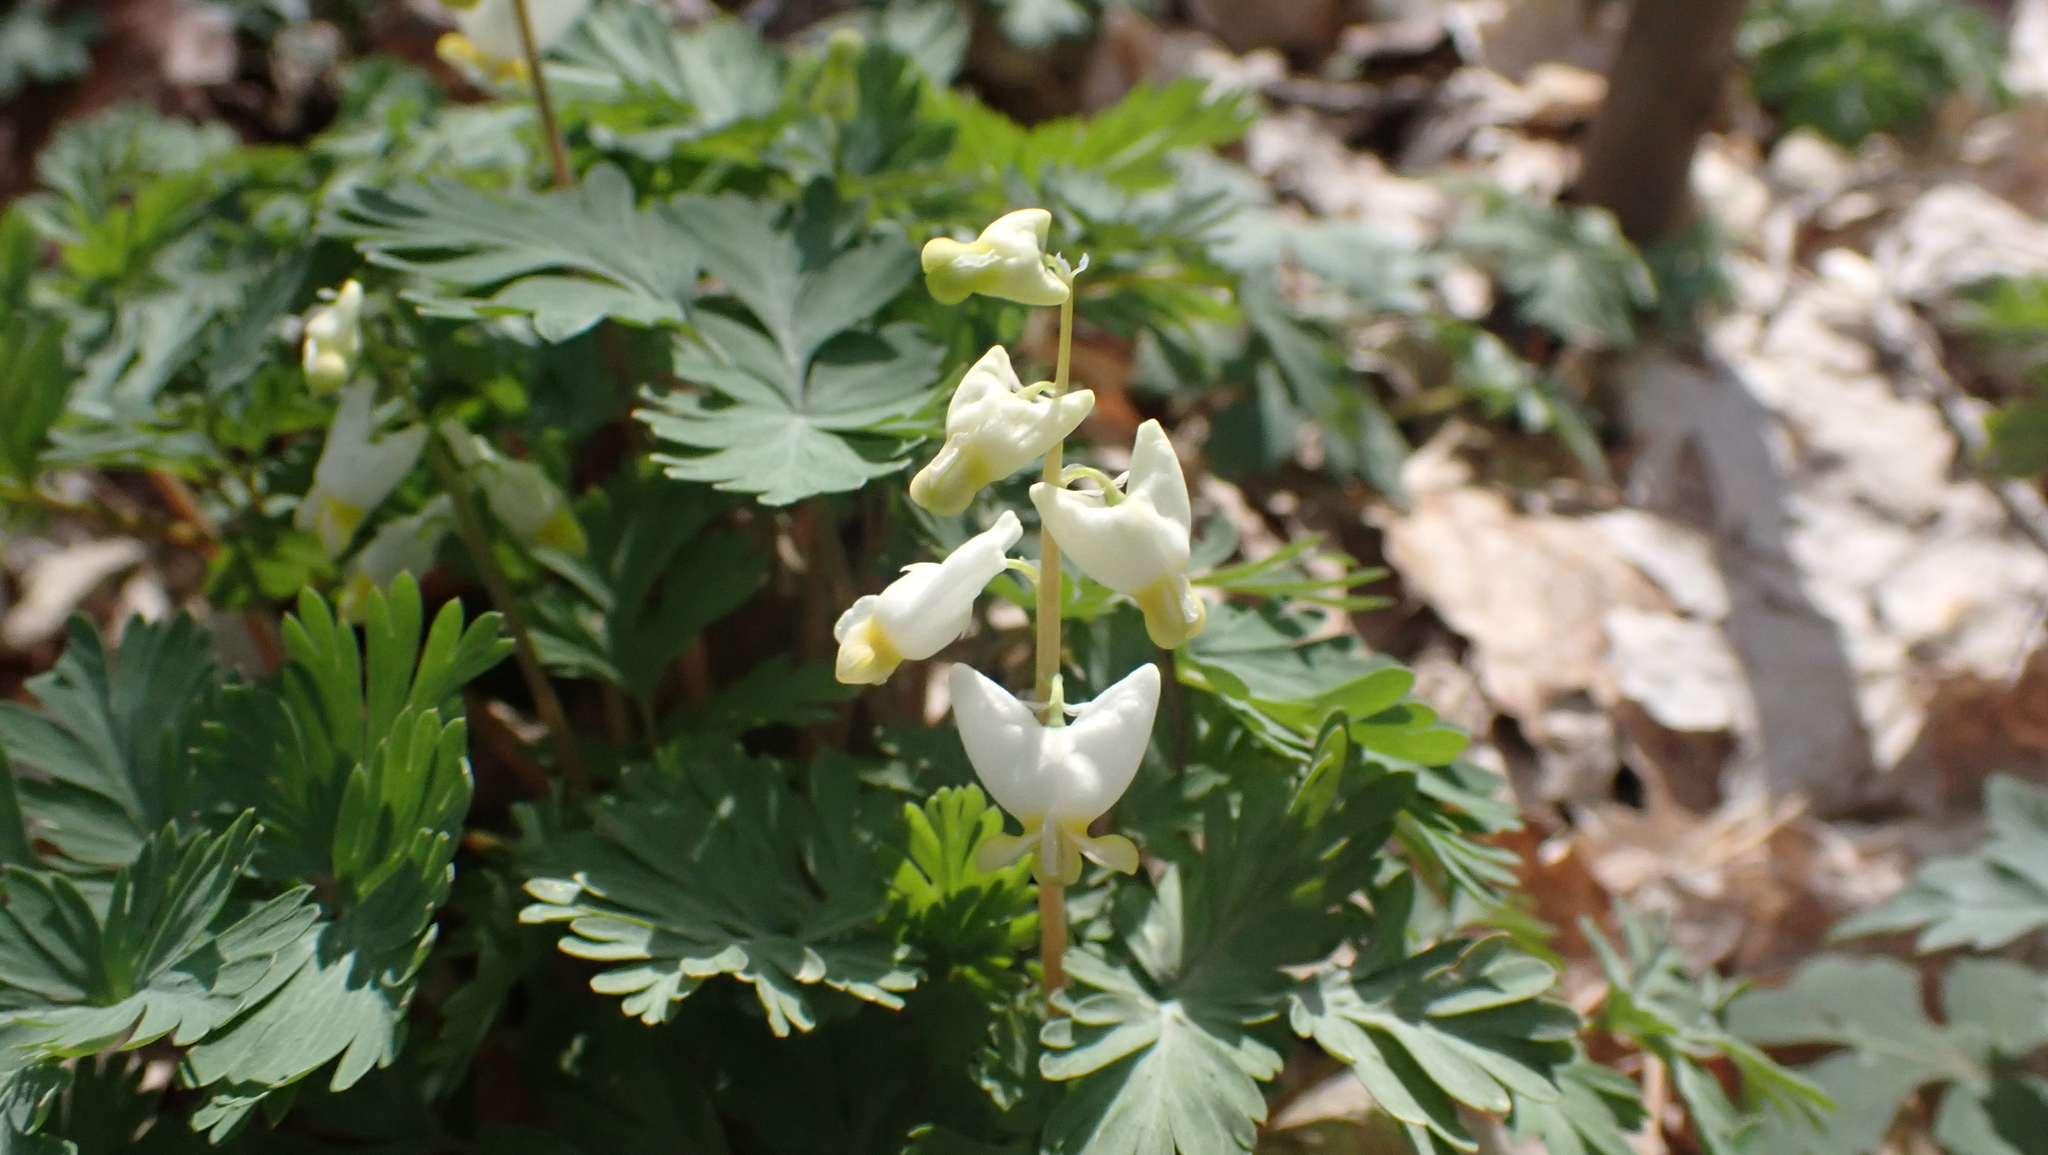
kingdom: Plantae
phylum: Tracheophyta
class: Magnoliopsida
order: Ranunculales
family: Papaveraceae
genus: Dicentra
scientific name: Dicentra cucullaria
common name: Dutchman's breeches
